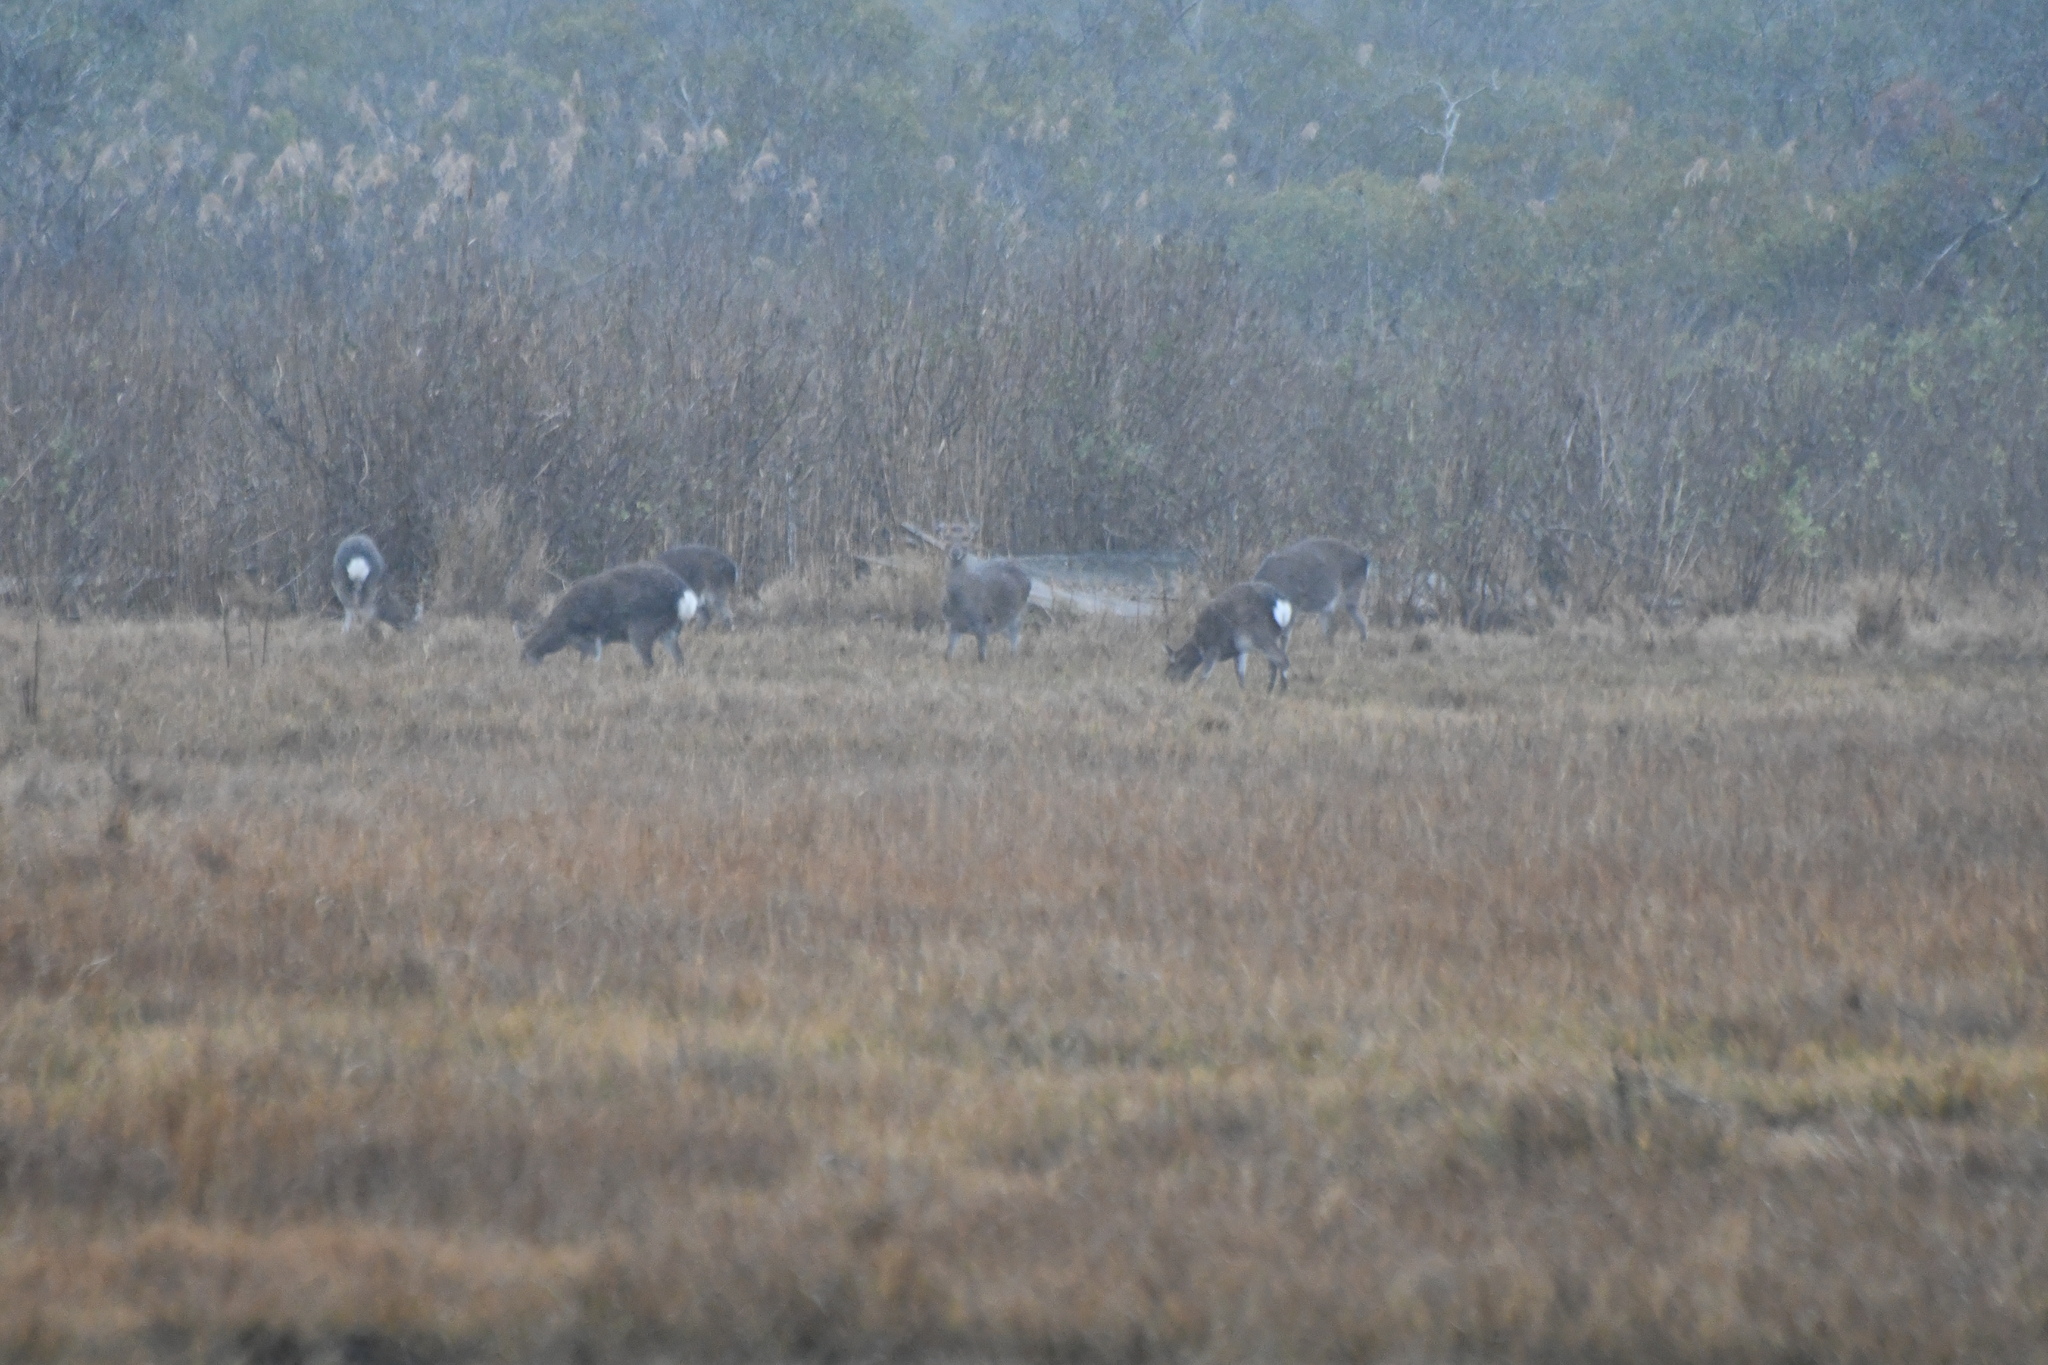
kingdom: Animalia
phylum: Chordata
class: Mammalia
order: Artiodactyla
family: Cervidae
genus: Cervus
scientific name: Cervus nippon
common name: Sika deer
